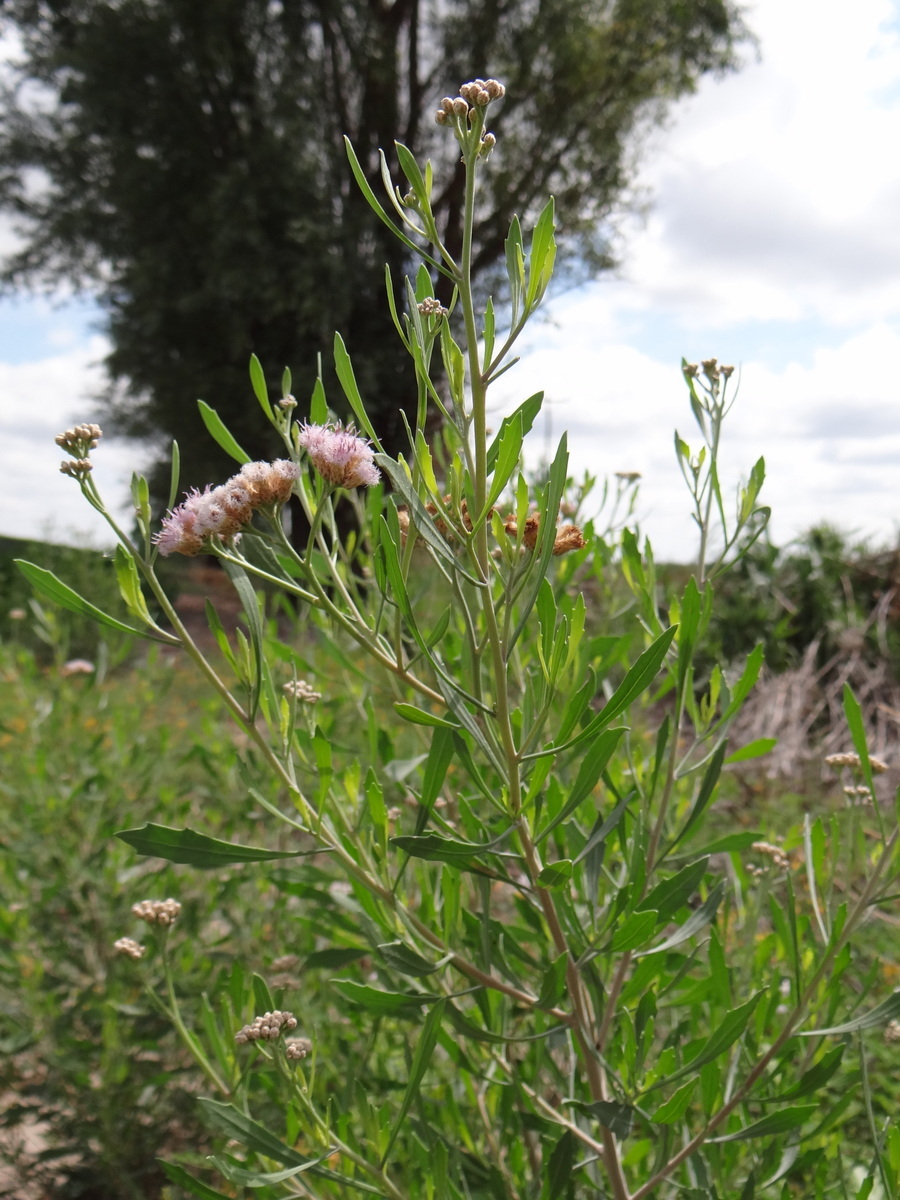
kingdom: Plantae
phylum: Tracheophyta
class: Magnoliopsida
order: Asterales
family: Asteraceae
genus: Tessaria
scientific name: Tessaria absinthioides
